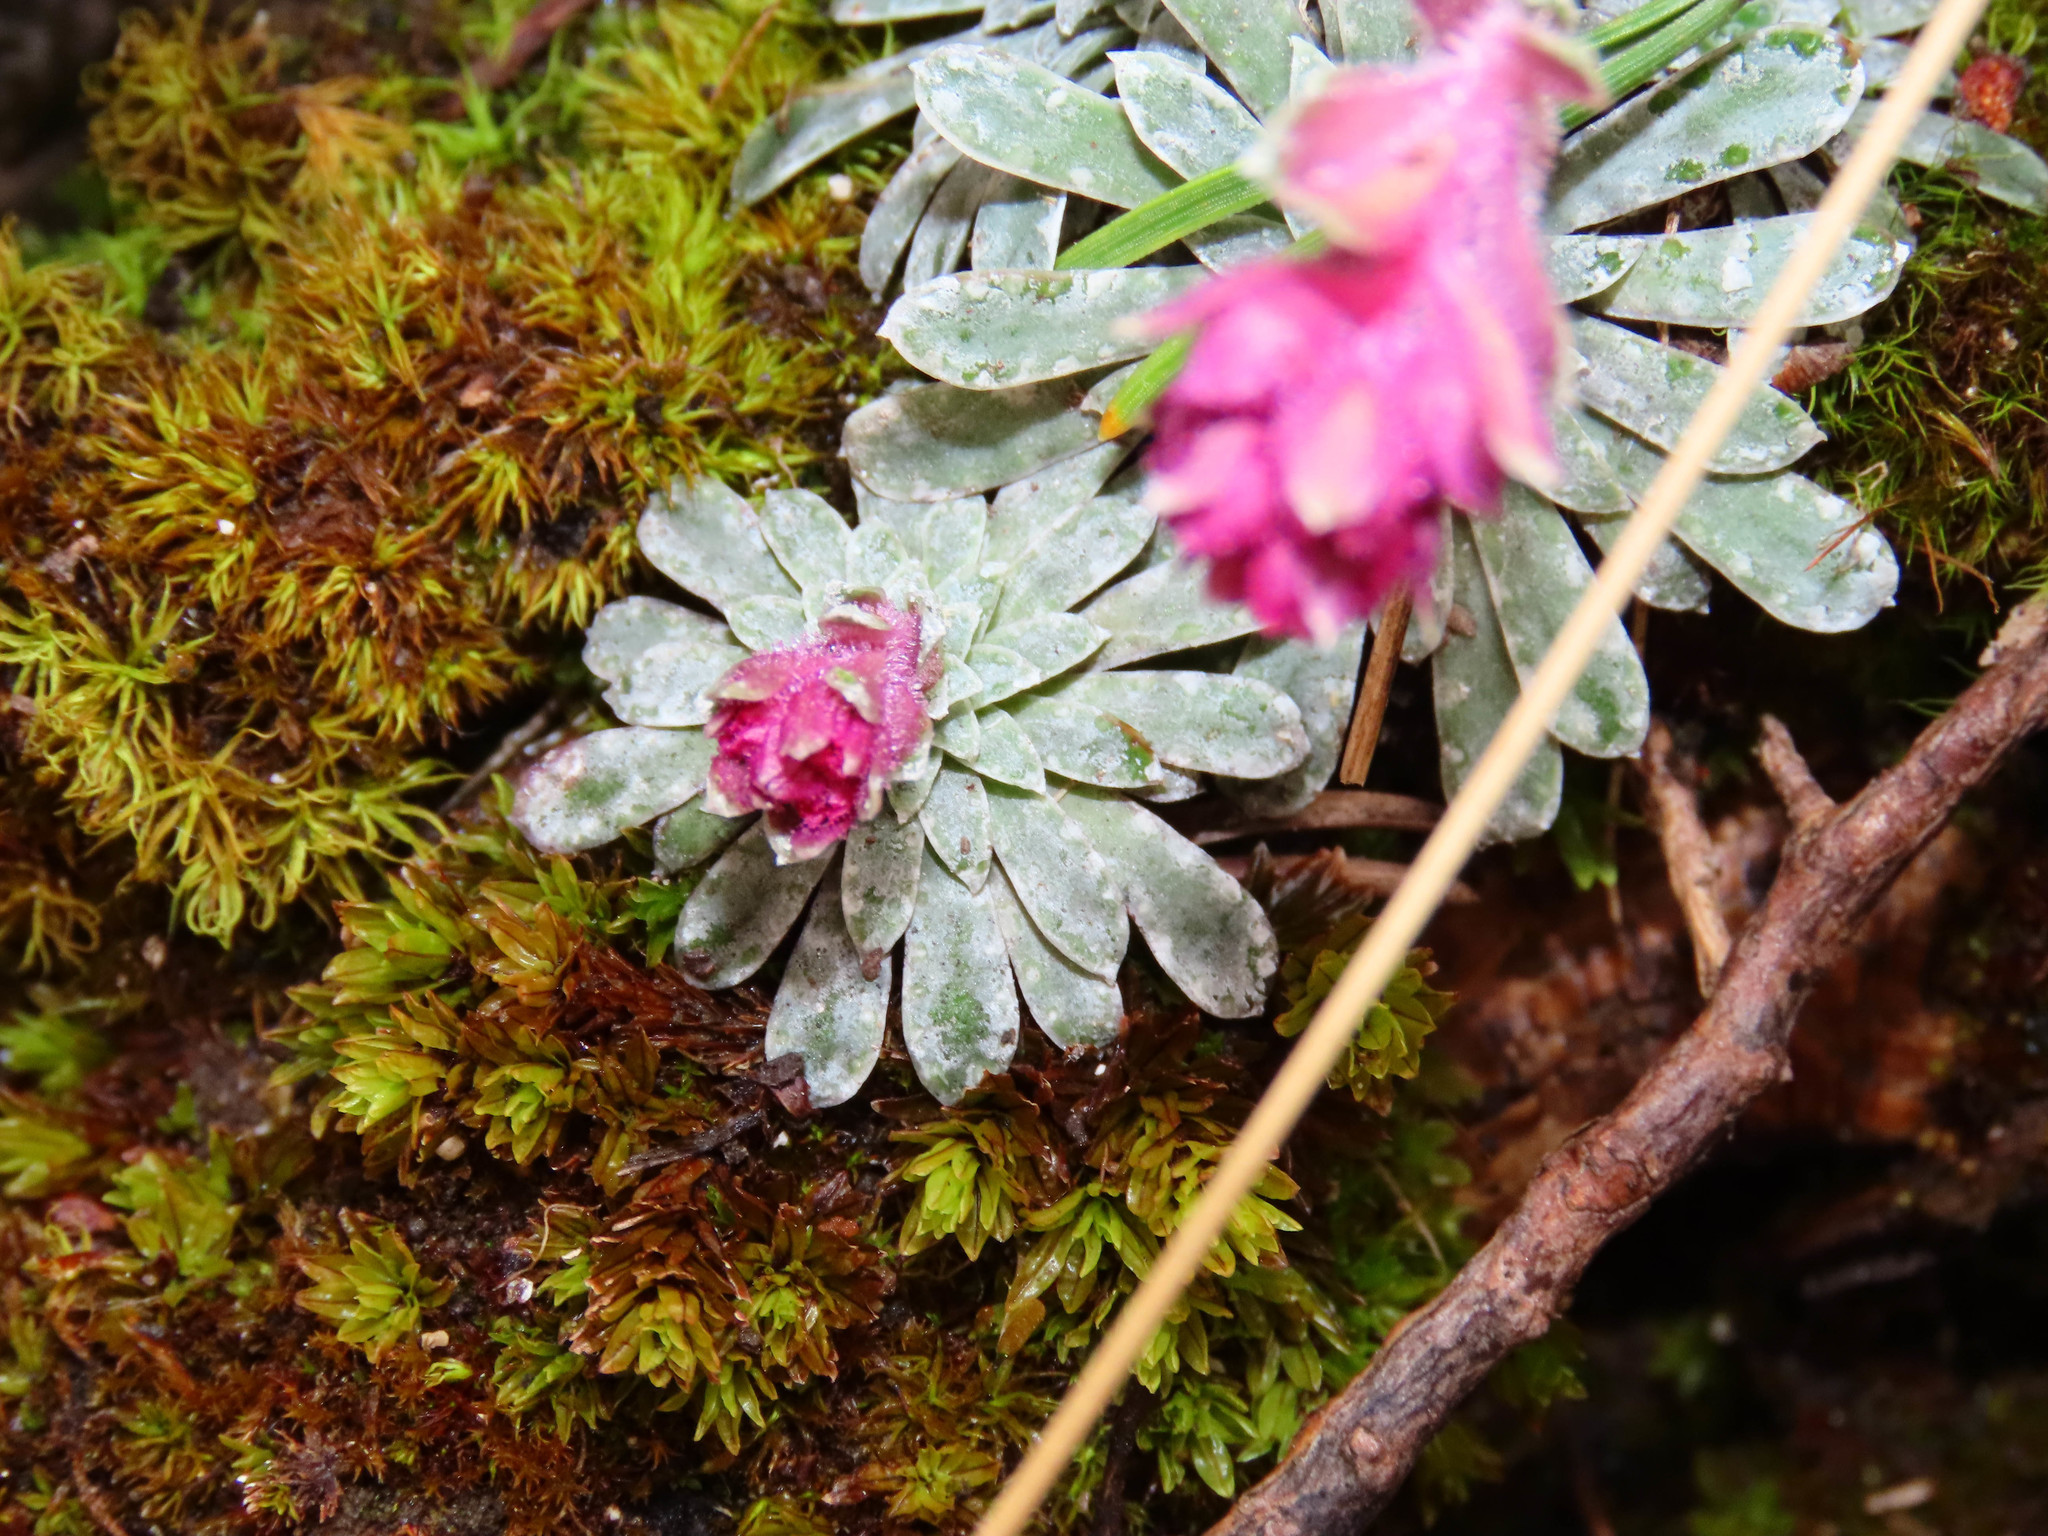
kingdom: Plantae
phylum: Tracheophyta
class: Magnoliopsida
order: Saxifragales
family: Saxifragaceae
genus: Saxifraga
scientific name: Saxifraga porophylla
